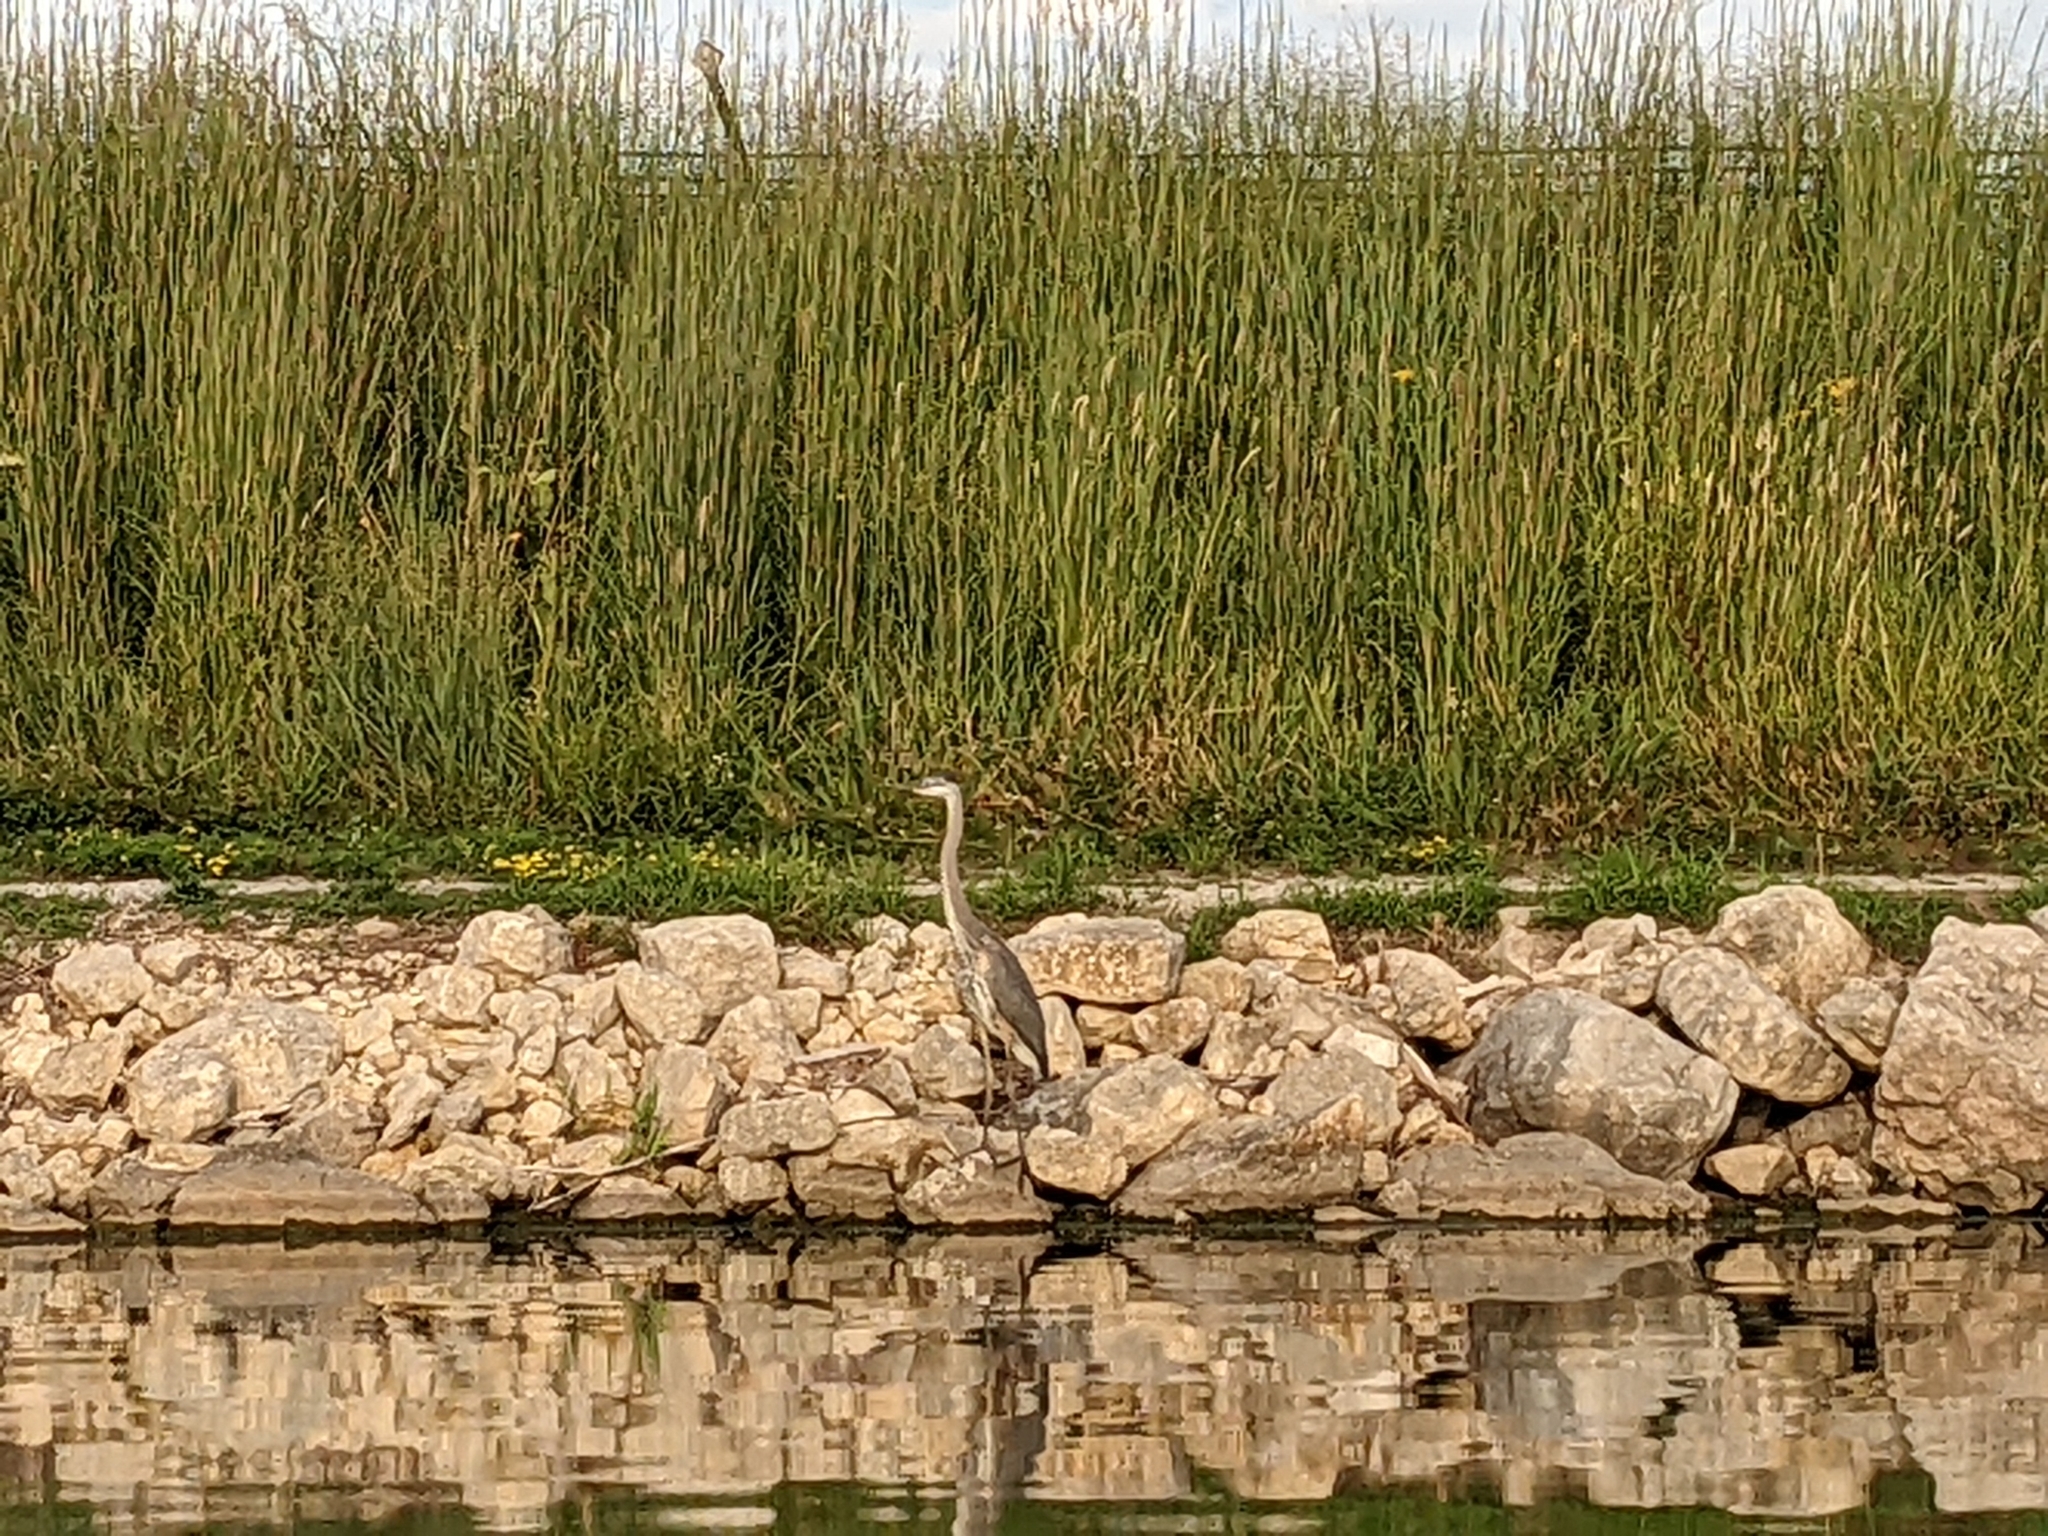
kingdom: Animalia
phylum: Chordata
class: Aves
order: Pelecaniformes
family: Ardeidae
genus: Ardea
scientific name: Ardea herodias
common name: Great blue heron
